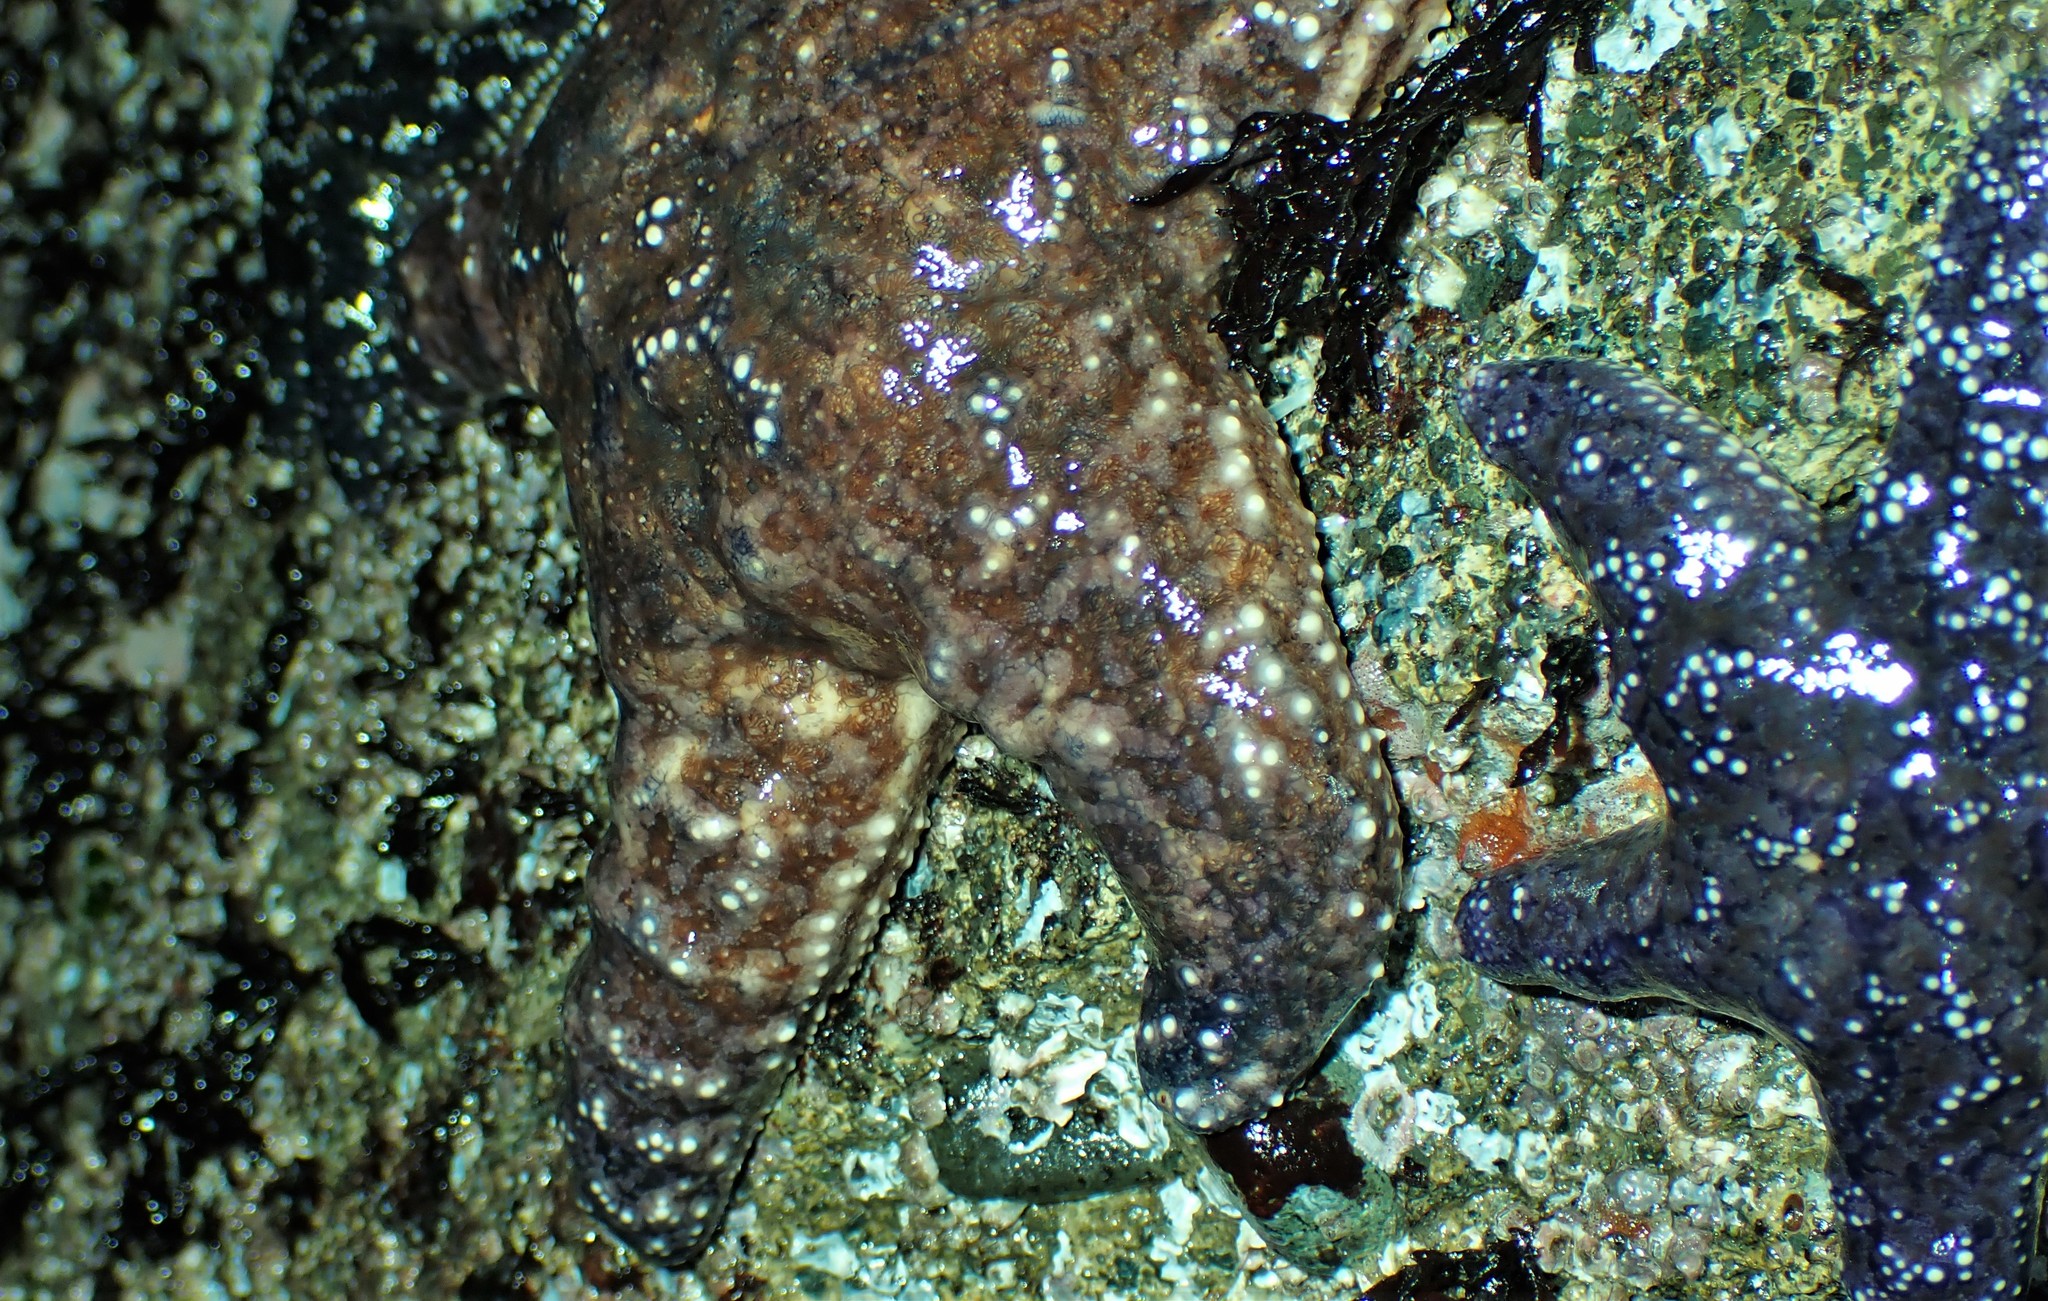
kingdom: Animalia
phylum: Echinodermata
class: Asteroidea
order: Forcipulatida
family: Asteriidae
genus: Pisaster
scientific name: Pisaster ochraceus
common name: Ochre stars
